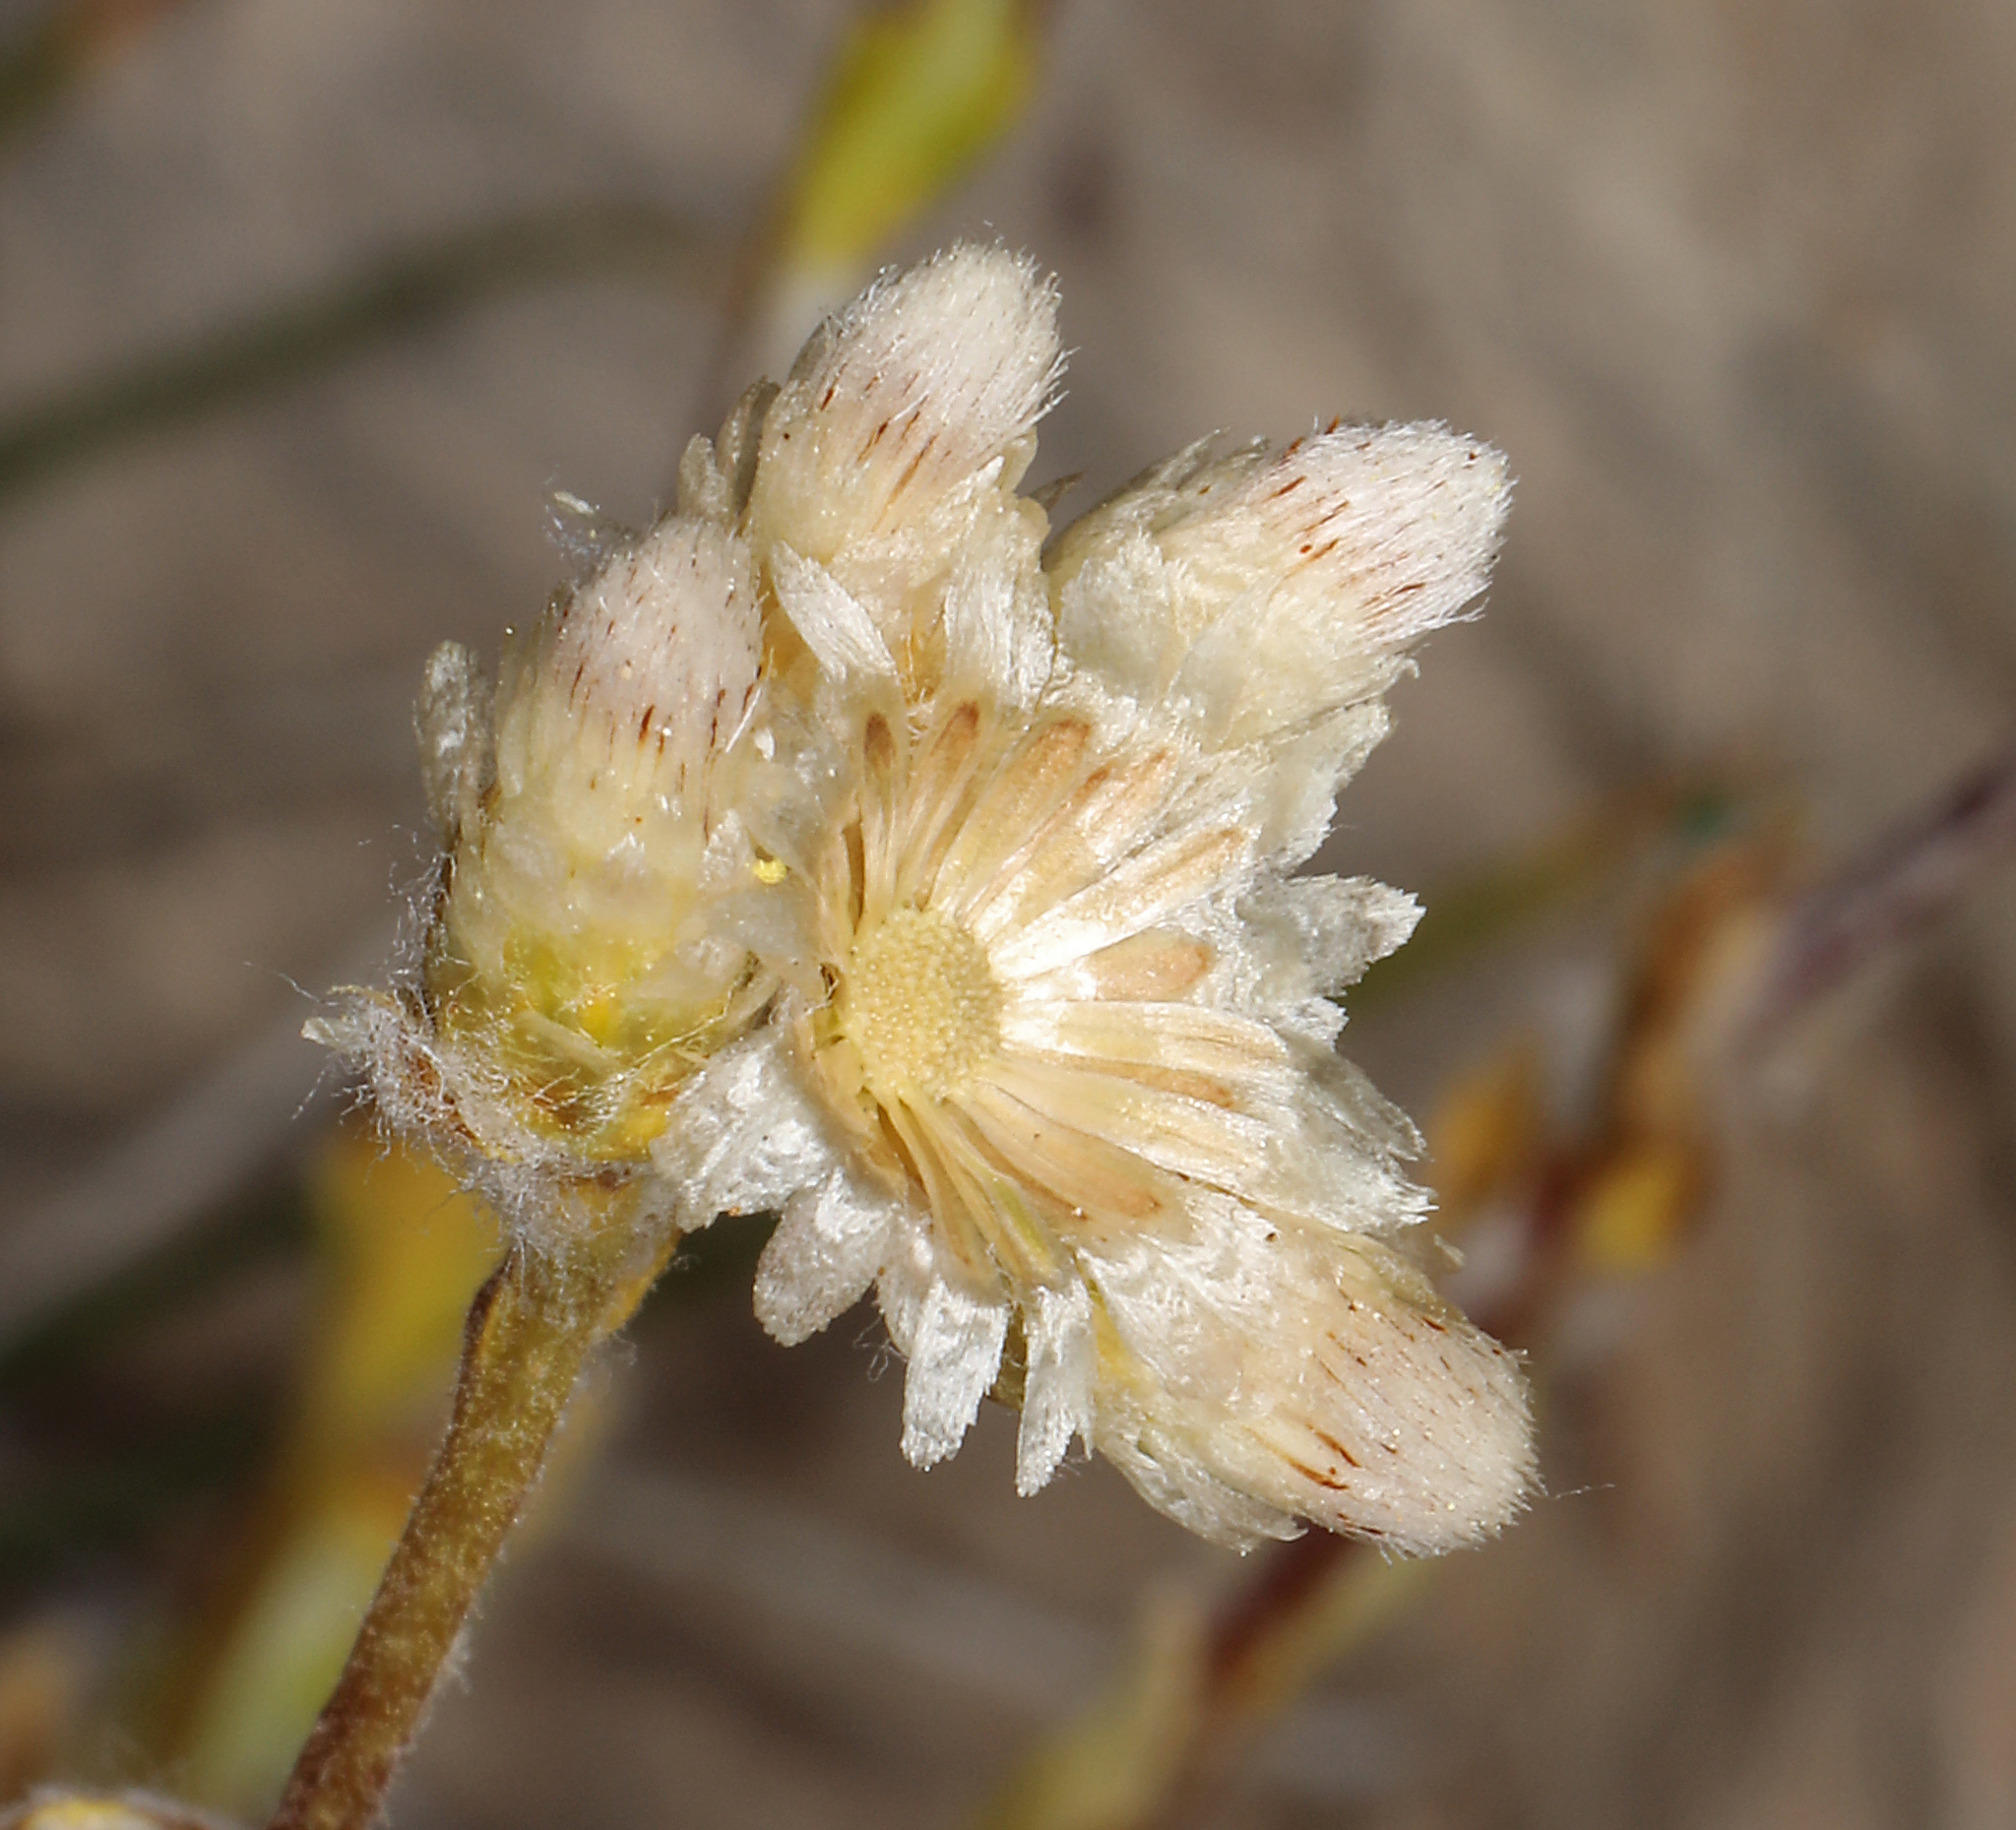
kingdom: Plantae
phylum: Tracheophyta
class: Magnoliopsida
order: Asterales
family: Asteraceae
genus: Antennaria
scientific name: Antennaria microphylla
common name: Littleleaf pussytoes
